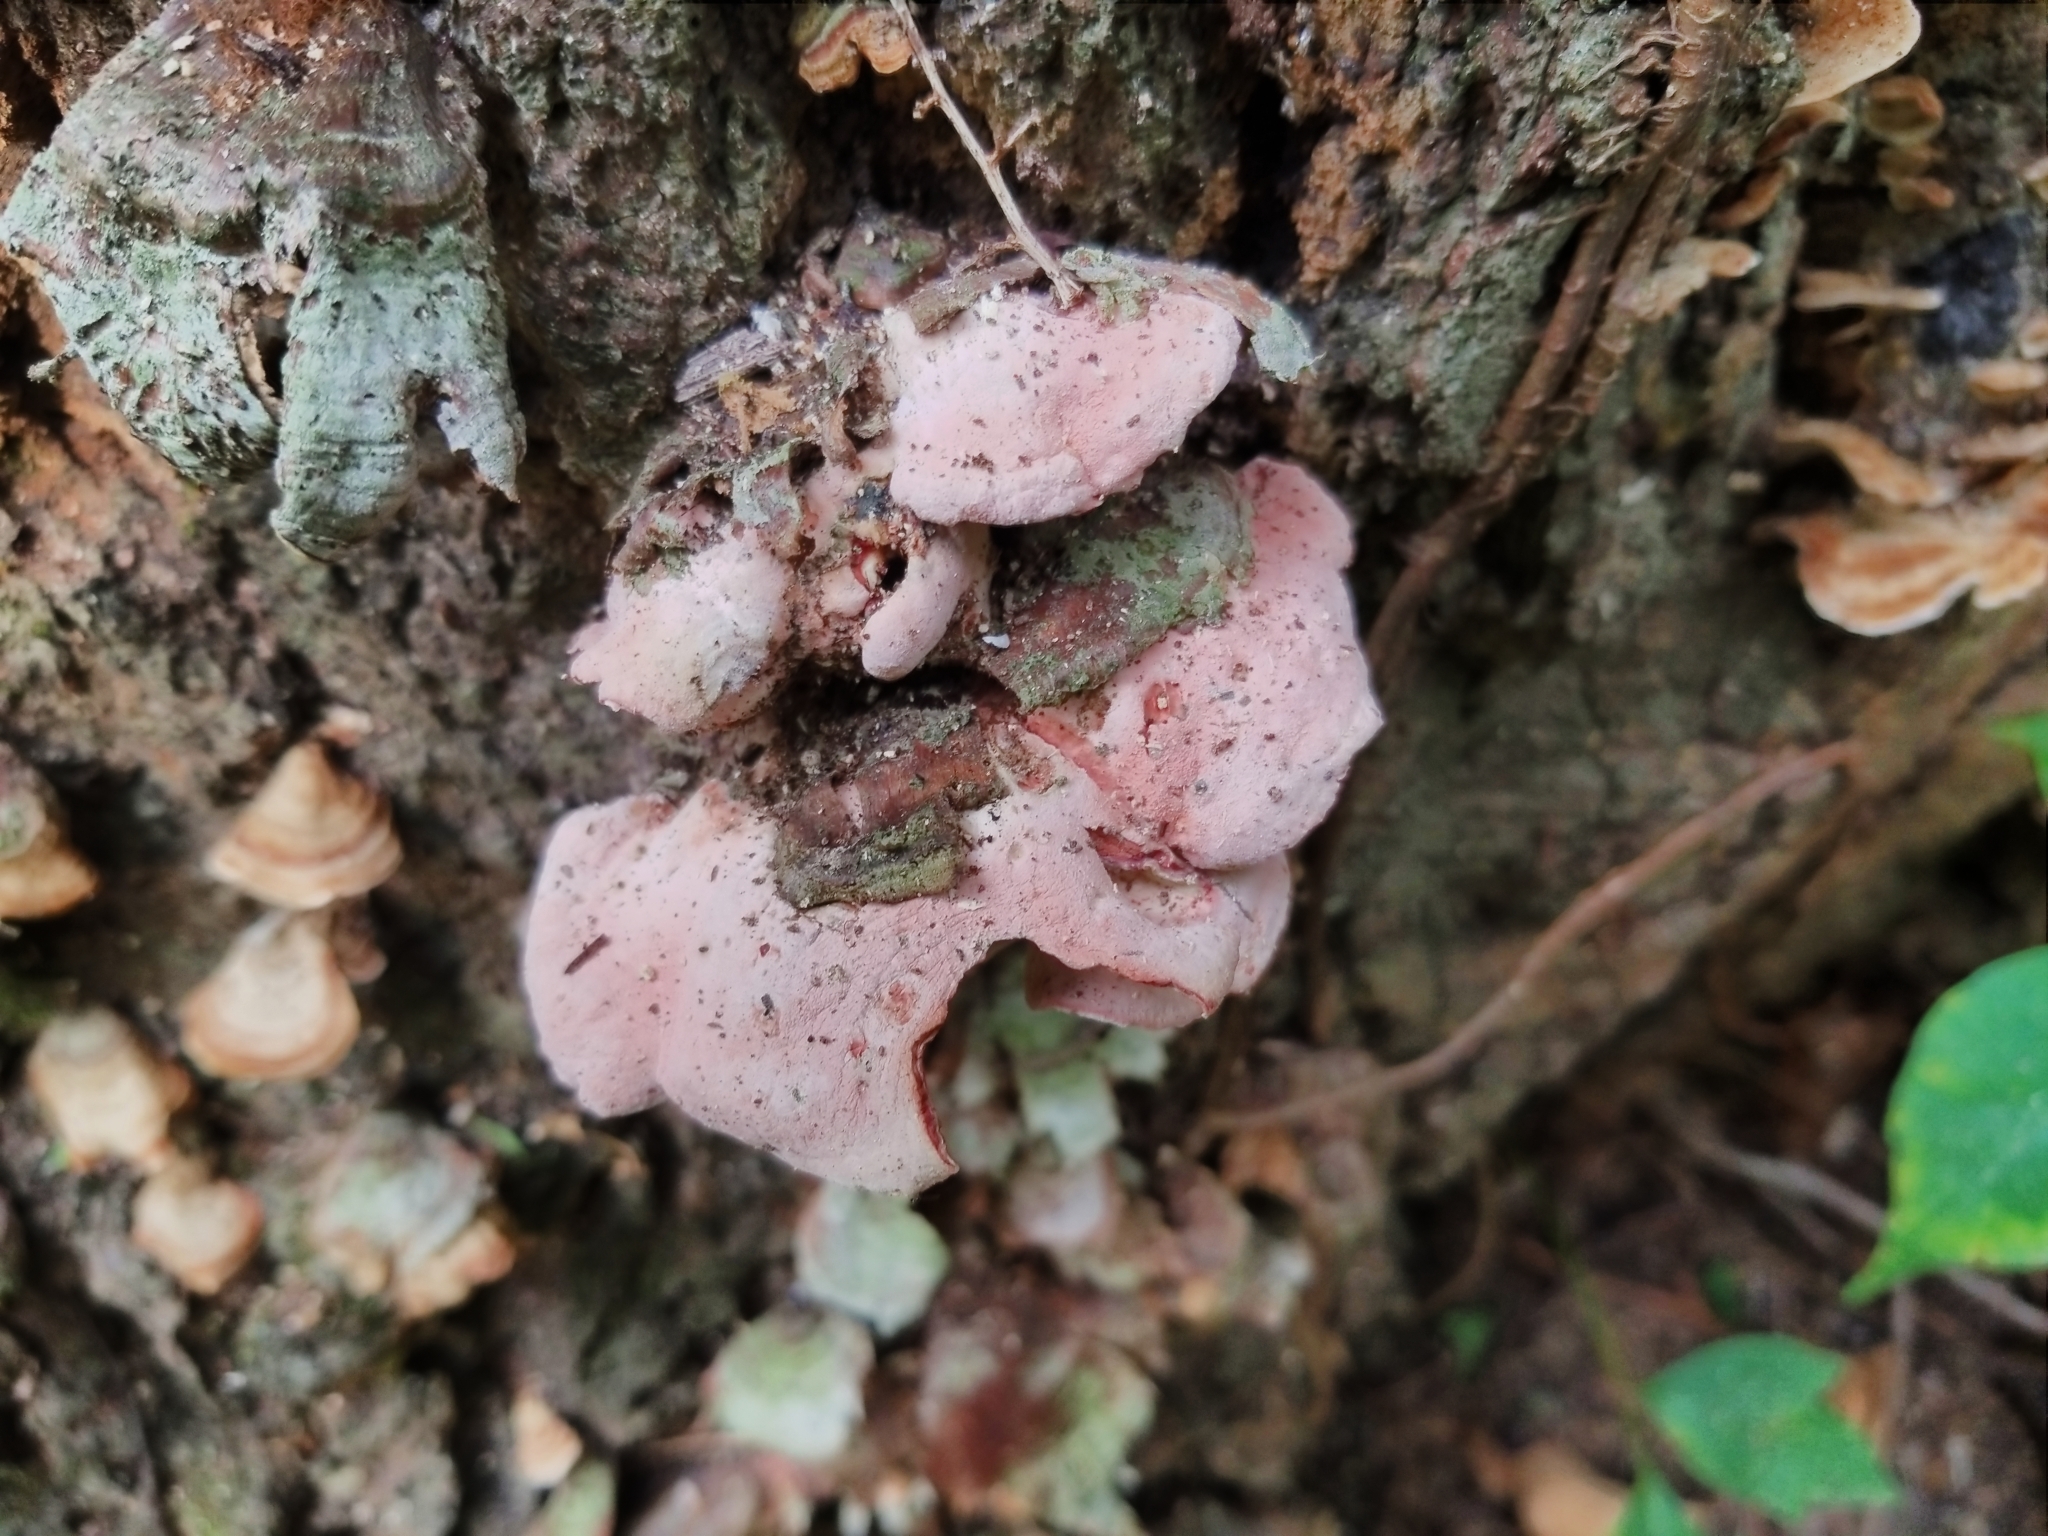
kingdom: Fungi
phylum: Basidiomycota
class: Agaricomycetes
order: Polyporales
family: Irpicaceae
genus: Byssomerulius
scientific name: Byssomerulius incarnatus
